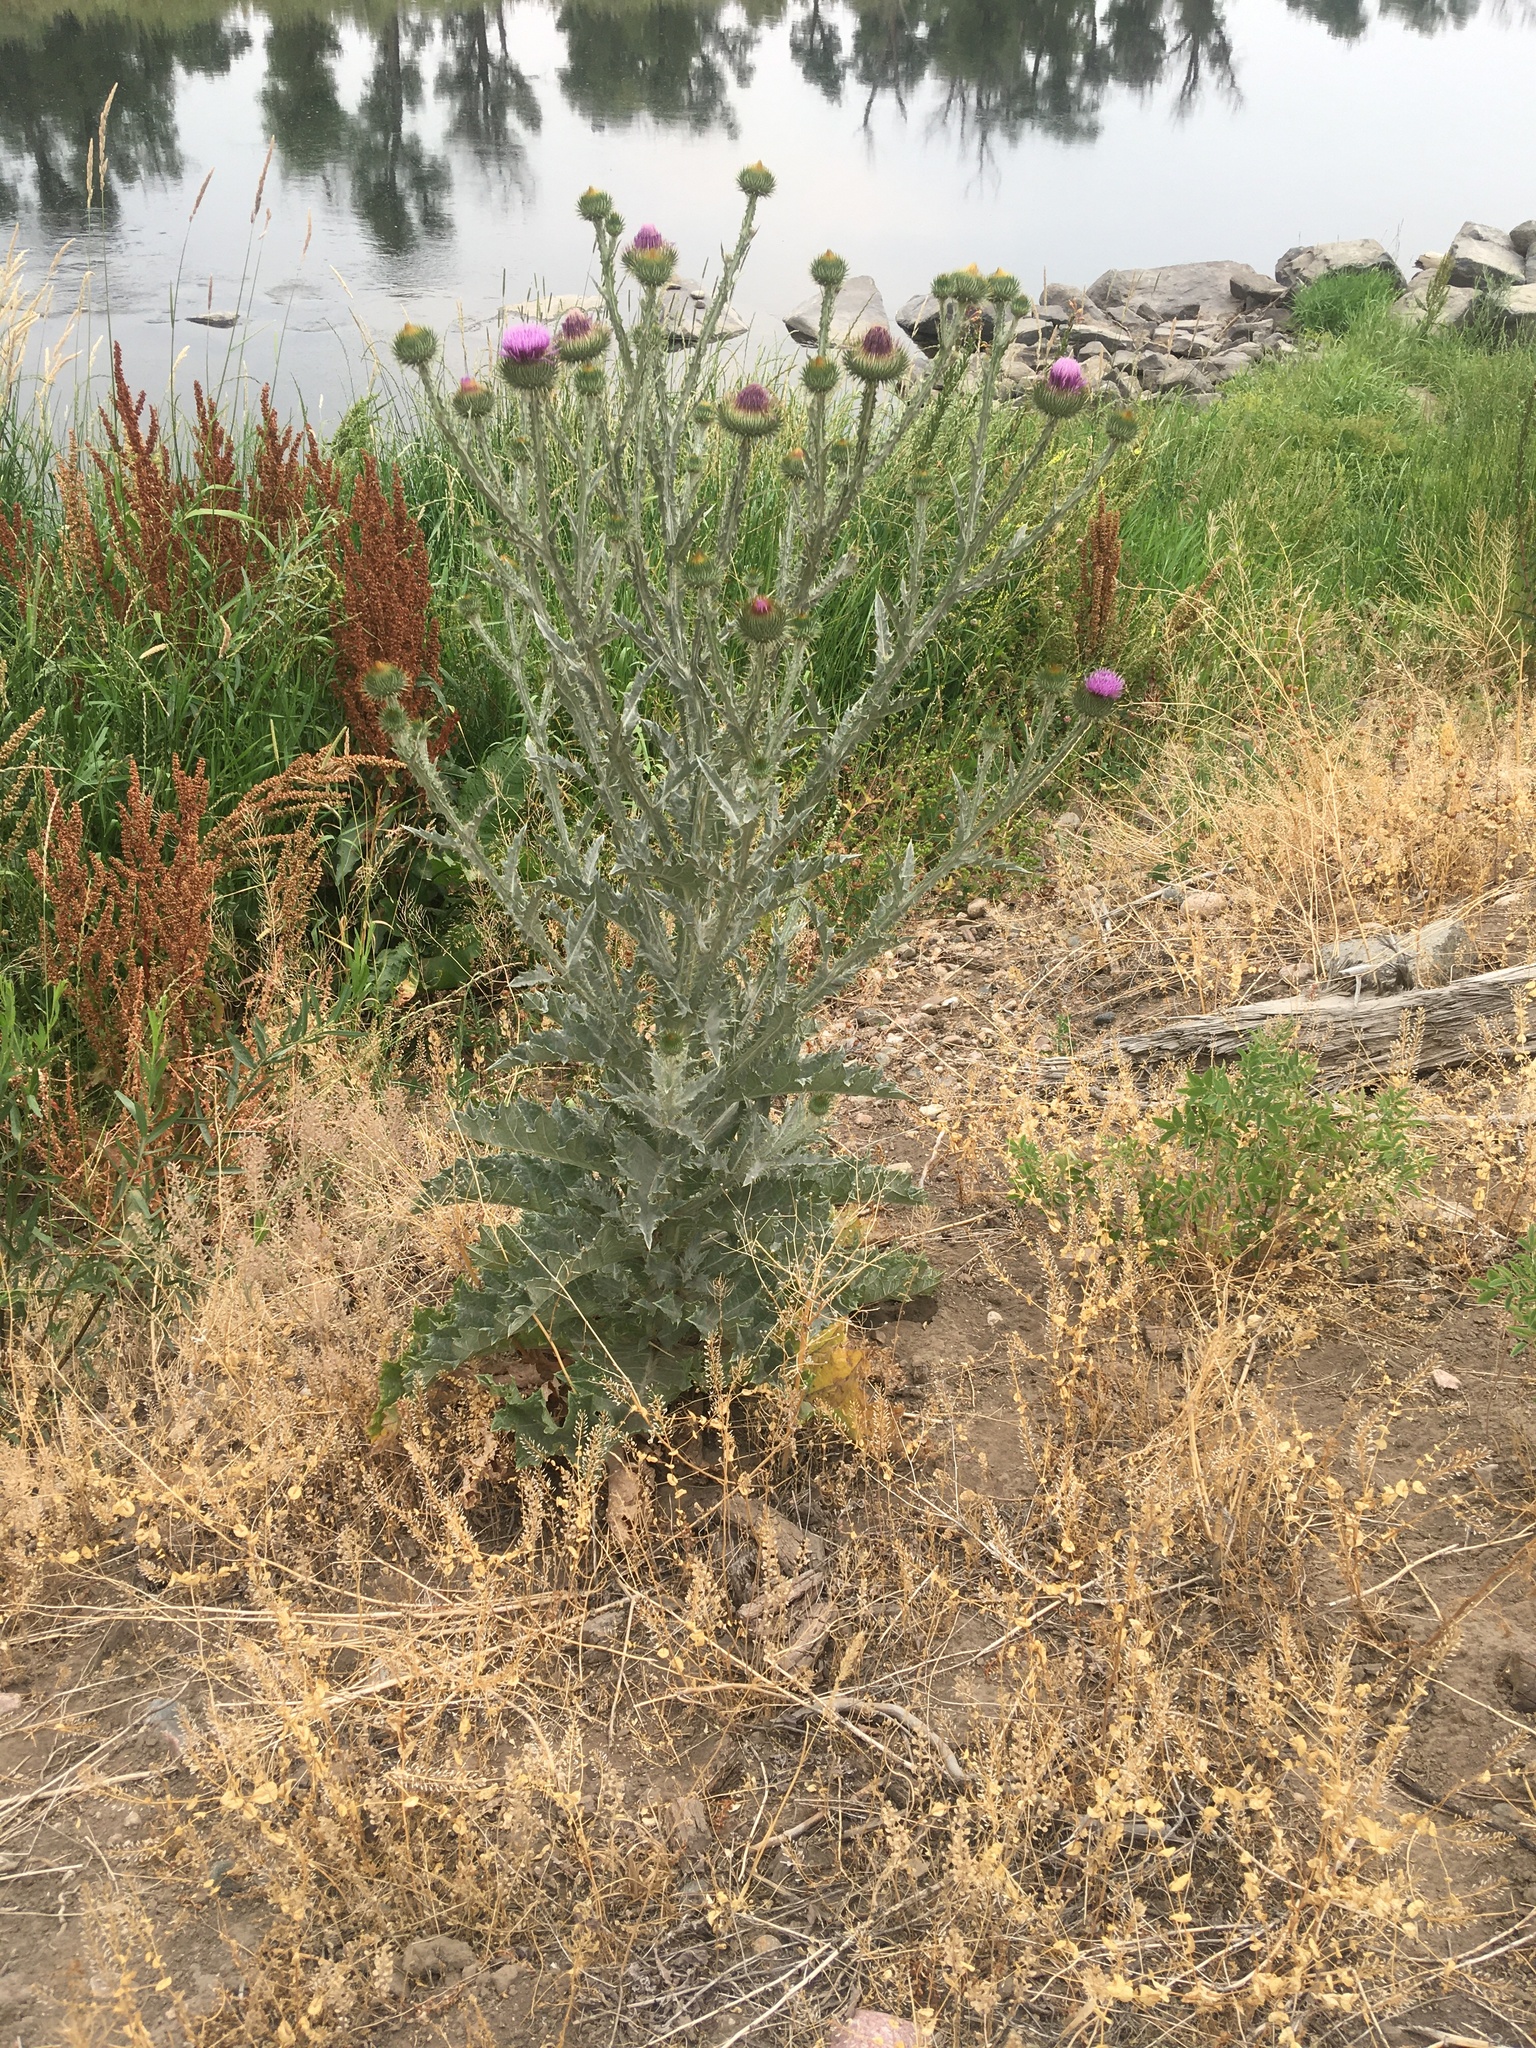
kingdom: Plantae
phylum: Tracheophyta
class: Magnoliopsida
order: Asterales
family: Asteraceae
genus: Onopordum
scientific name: Onopordum acanthium
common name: Scotch thistle
